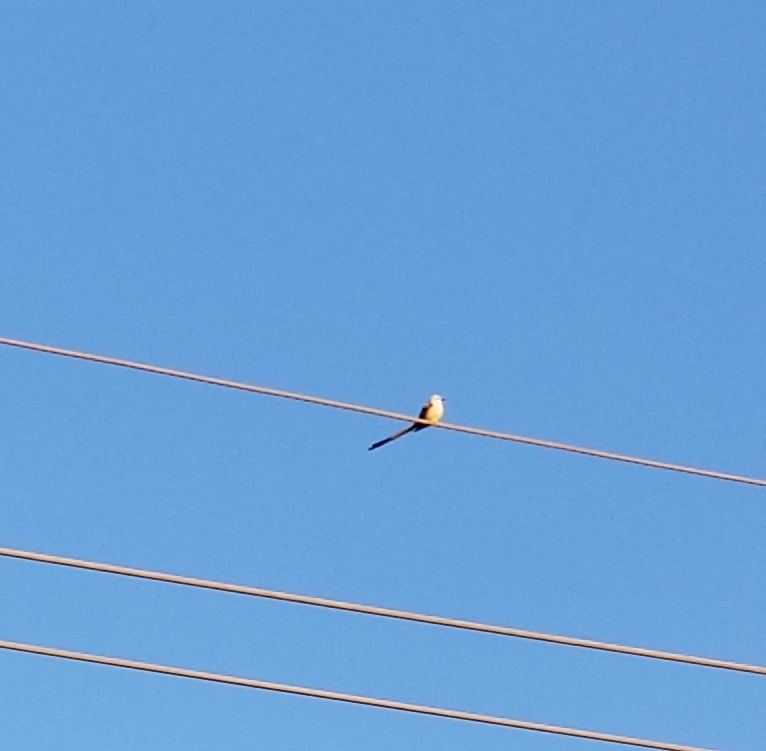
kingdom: Animalia
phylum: Chordata
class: Aves
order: Passeriformes
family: Tyrannidae
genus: Tyrannus
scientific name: Tyrannus forficatus
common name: Scissor-tailed flycatcher
